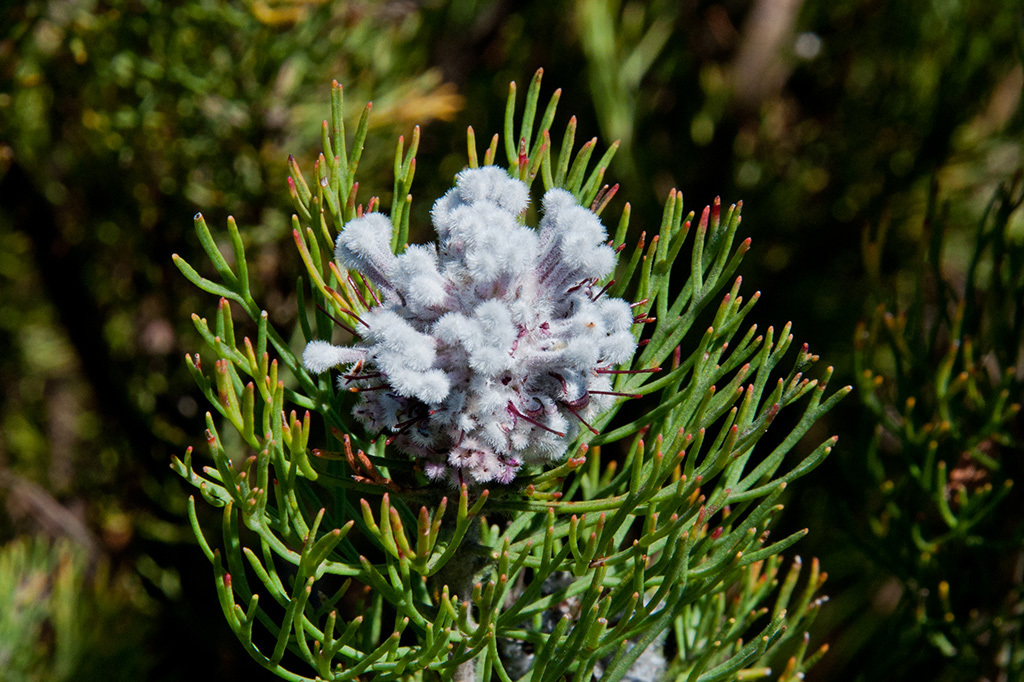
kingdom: Plantae
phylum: Tracheophyta
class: Magnoliopsida
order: Proteales
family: Proteaceae
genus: Paranomus
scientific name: Paranomus
